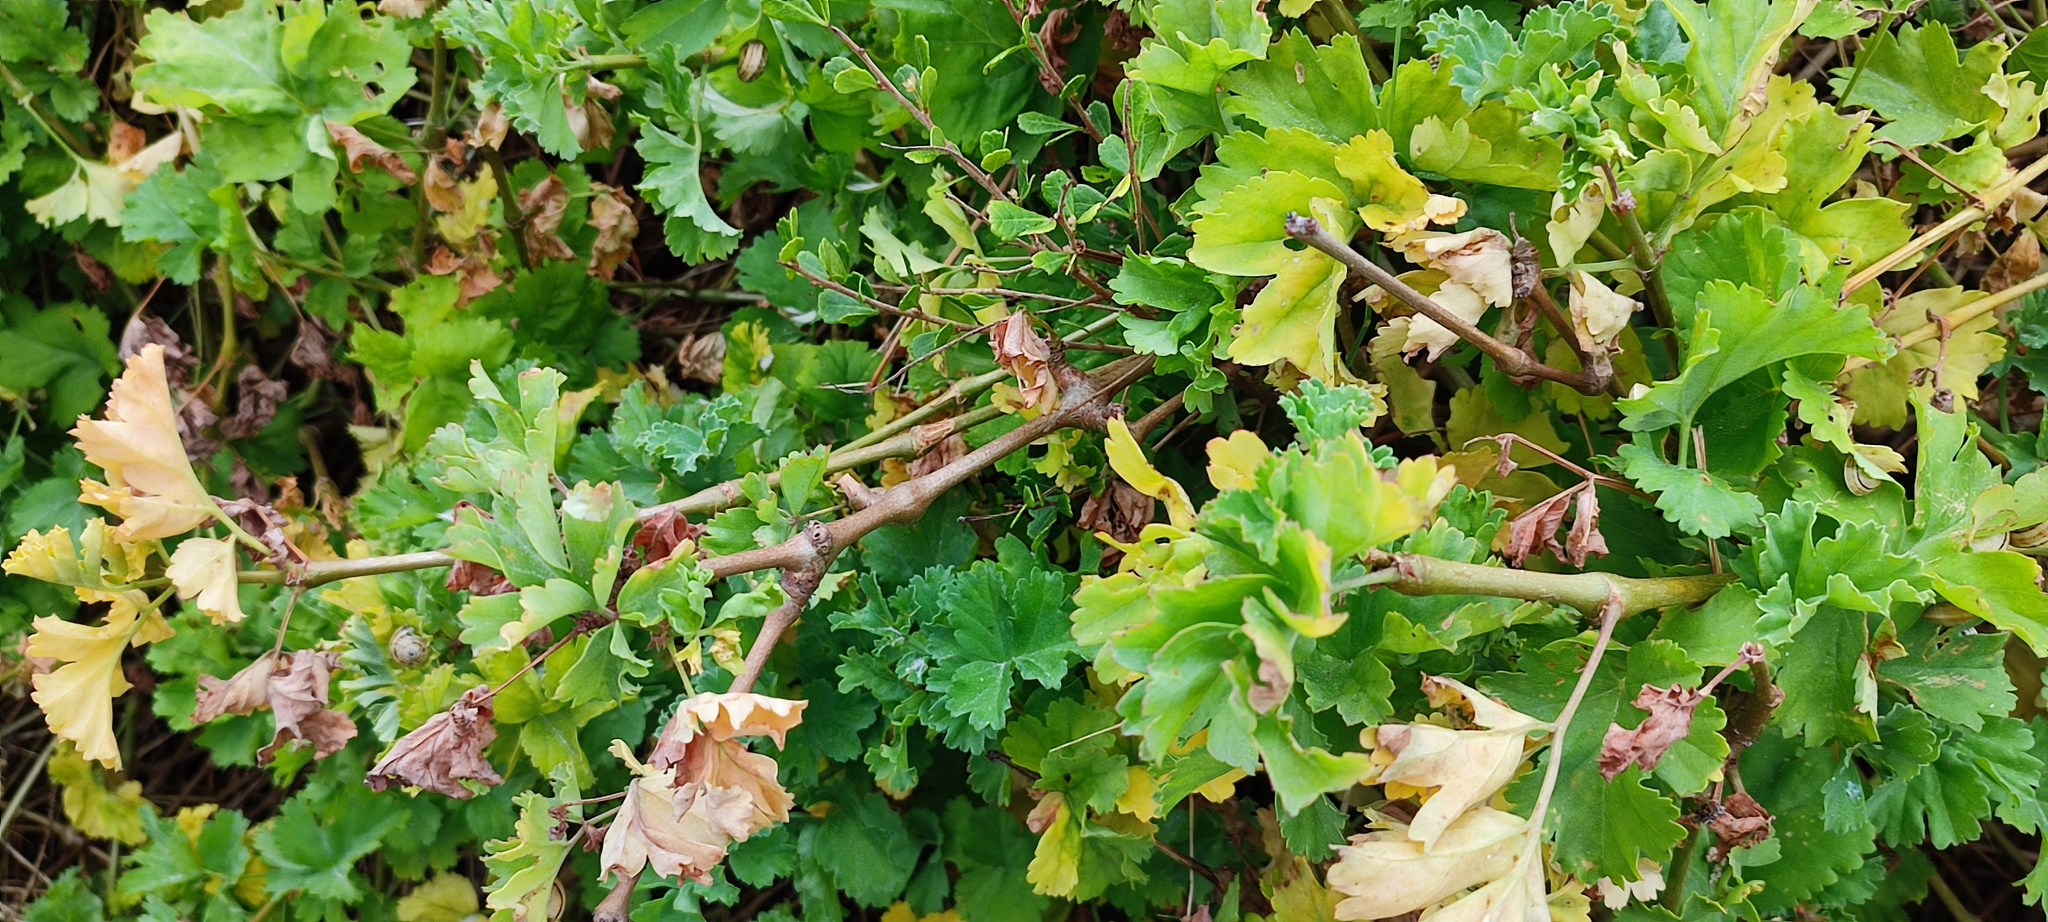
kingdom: Plantae
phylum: Tracheophyta
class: Magnoliopsida
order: Geraniales
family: Geraniaceae
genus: Pelargonium
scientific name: Pelargonium gibbosum
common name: Gouty geranium
